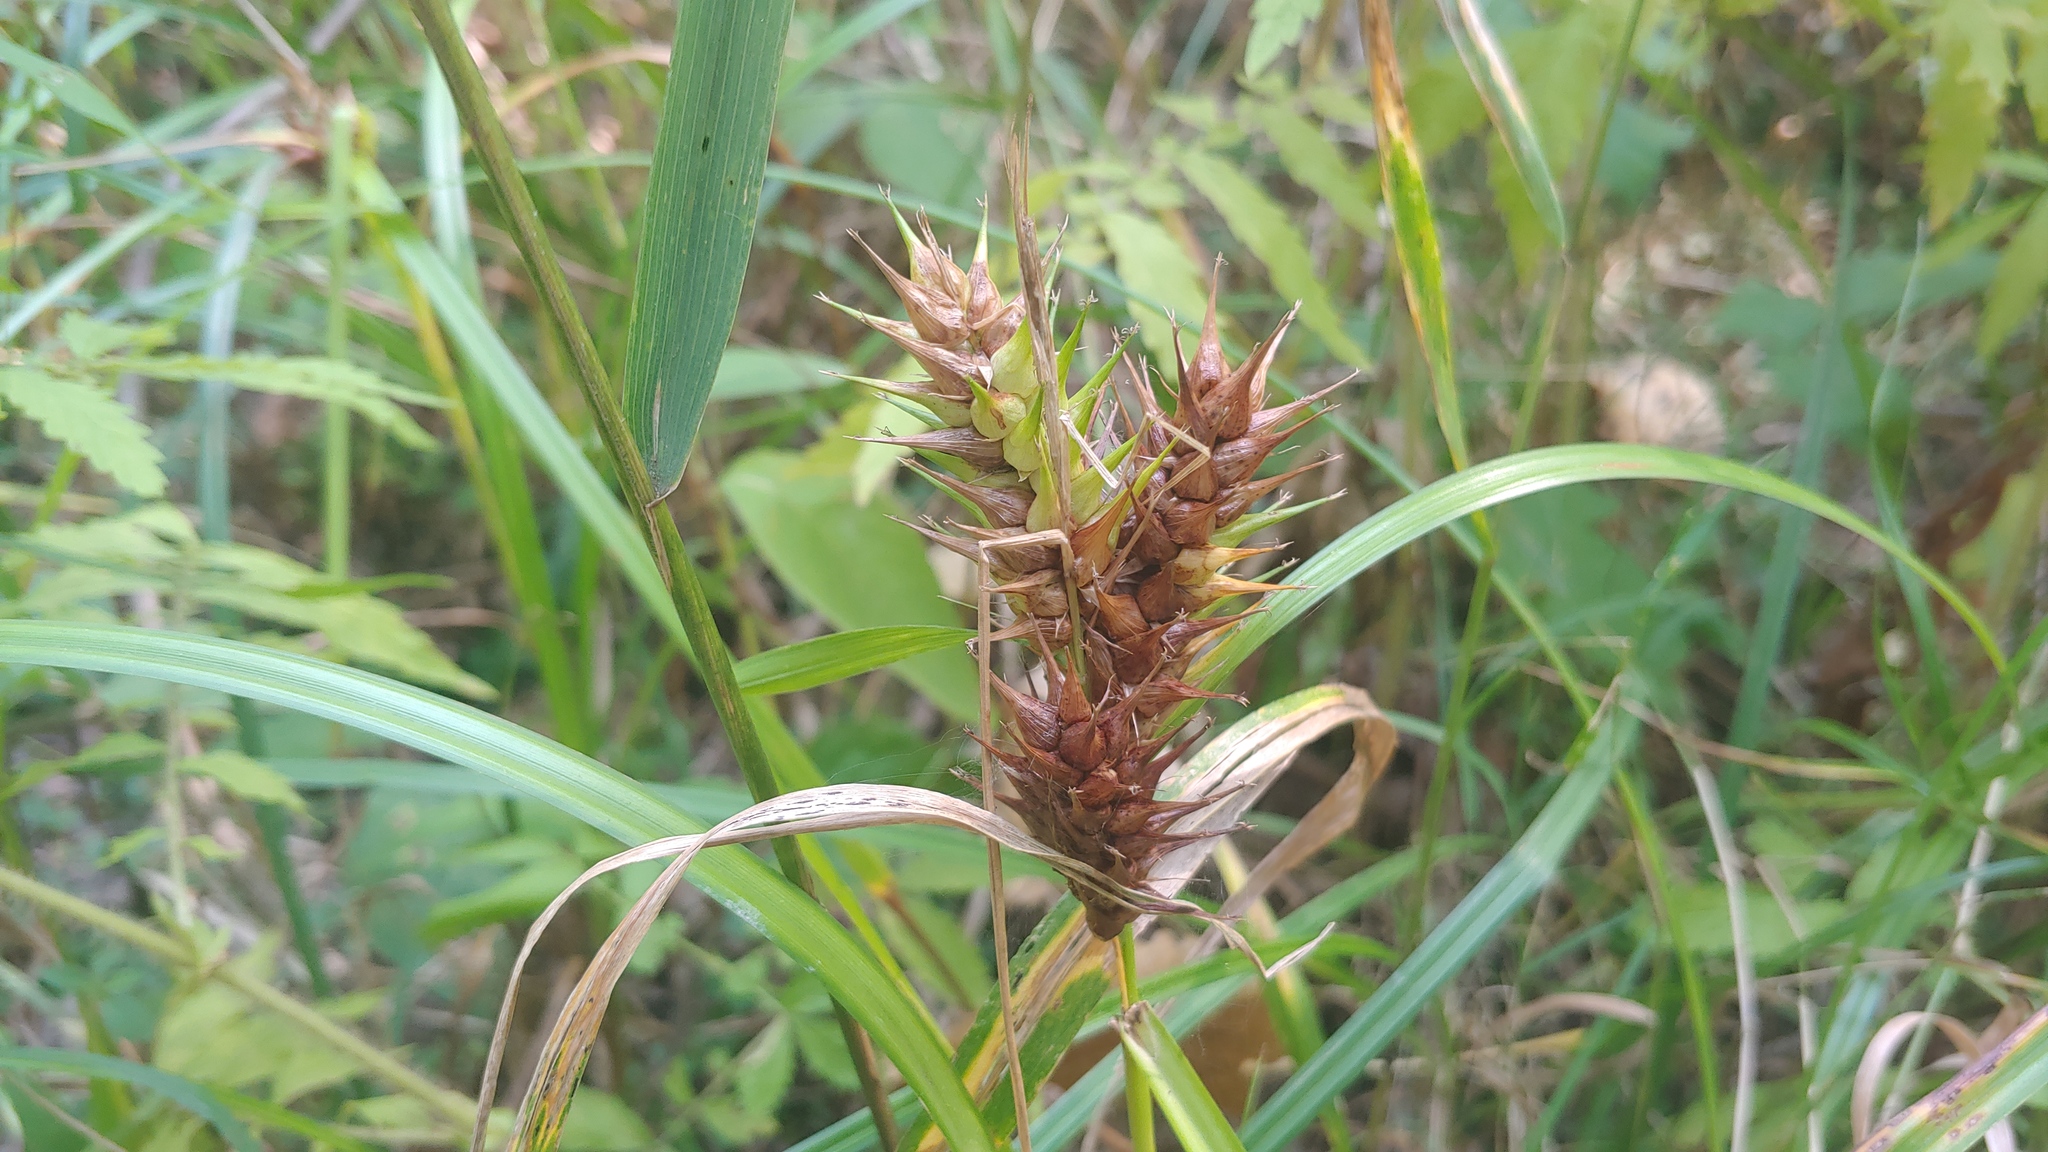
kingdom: Plantae
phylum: Tracheophyta
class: Liliopsida
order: Poales
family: Cyperaceae
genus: Carex
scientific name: Carex lupulina
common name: Hop sedge
